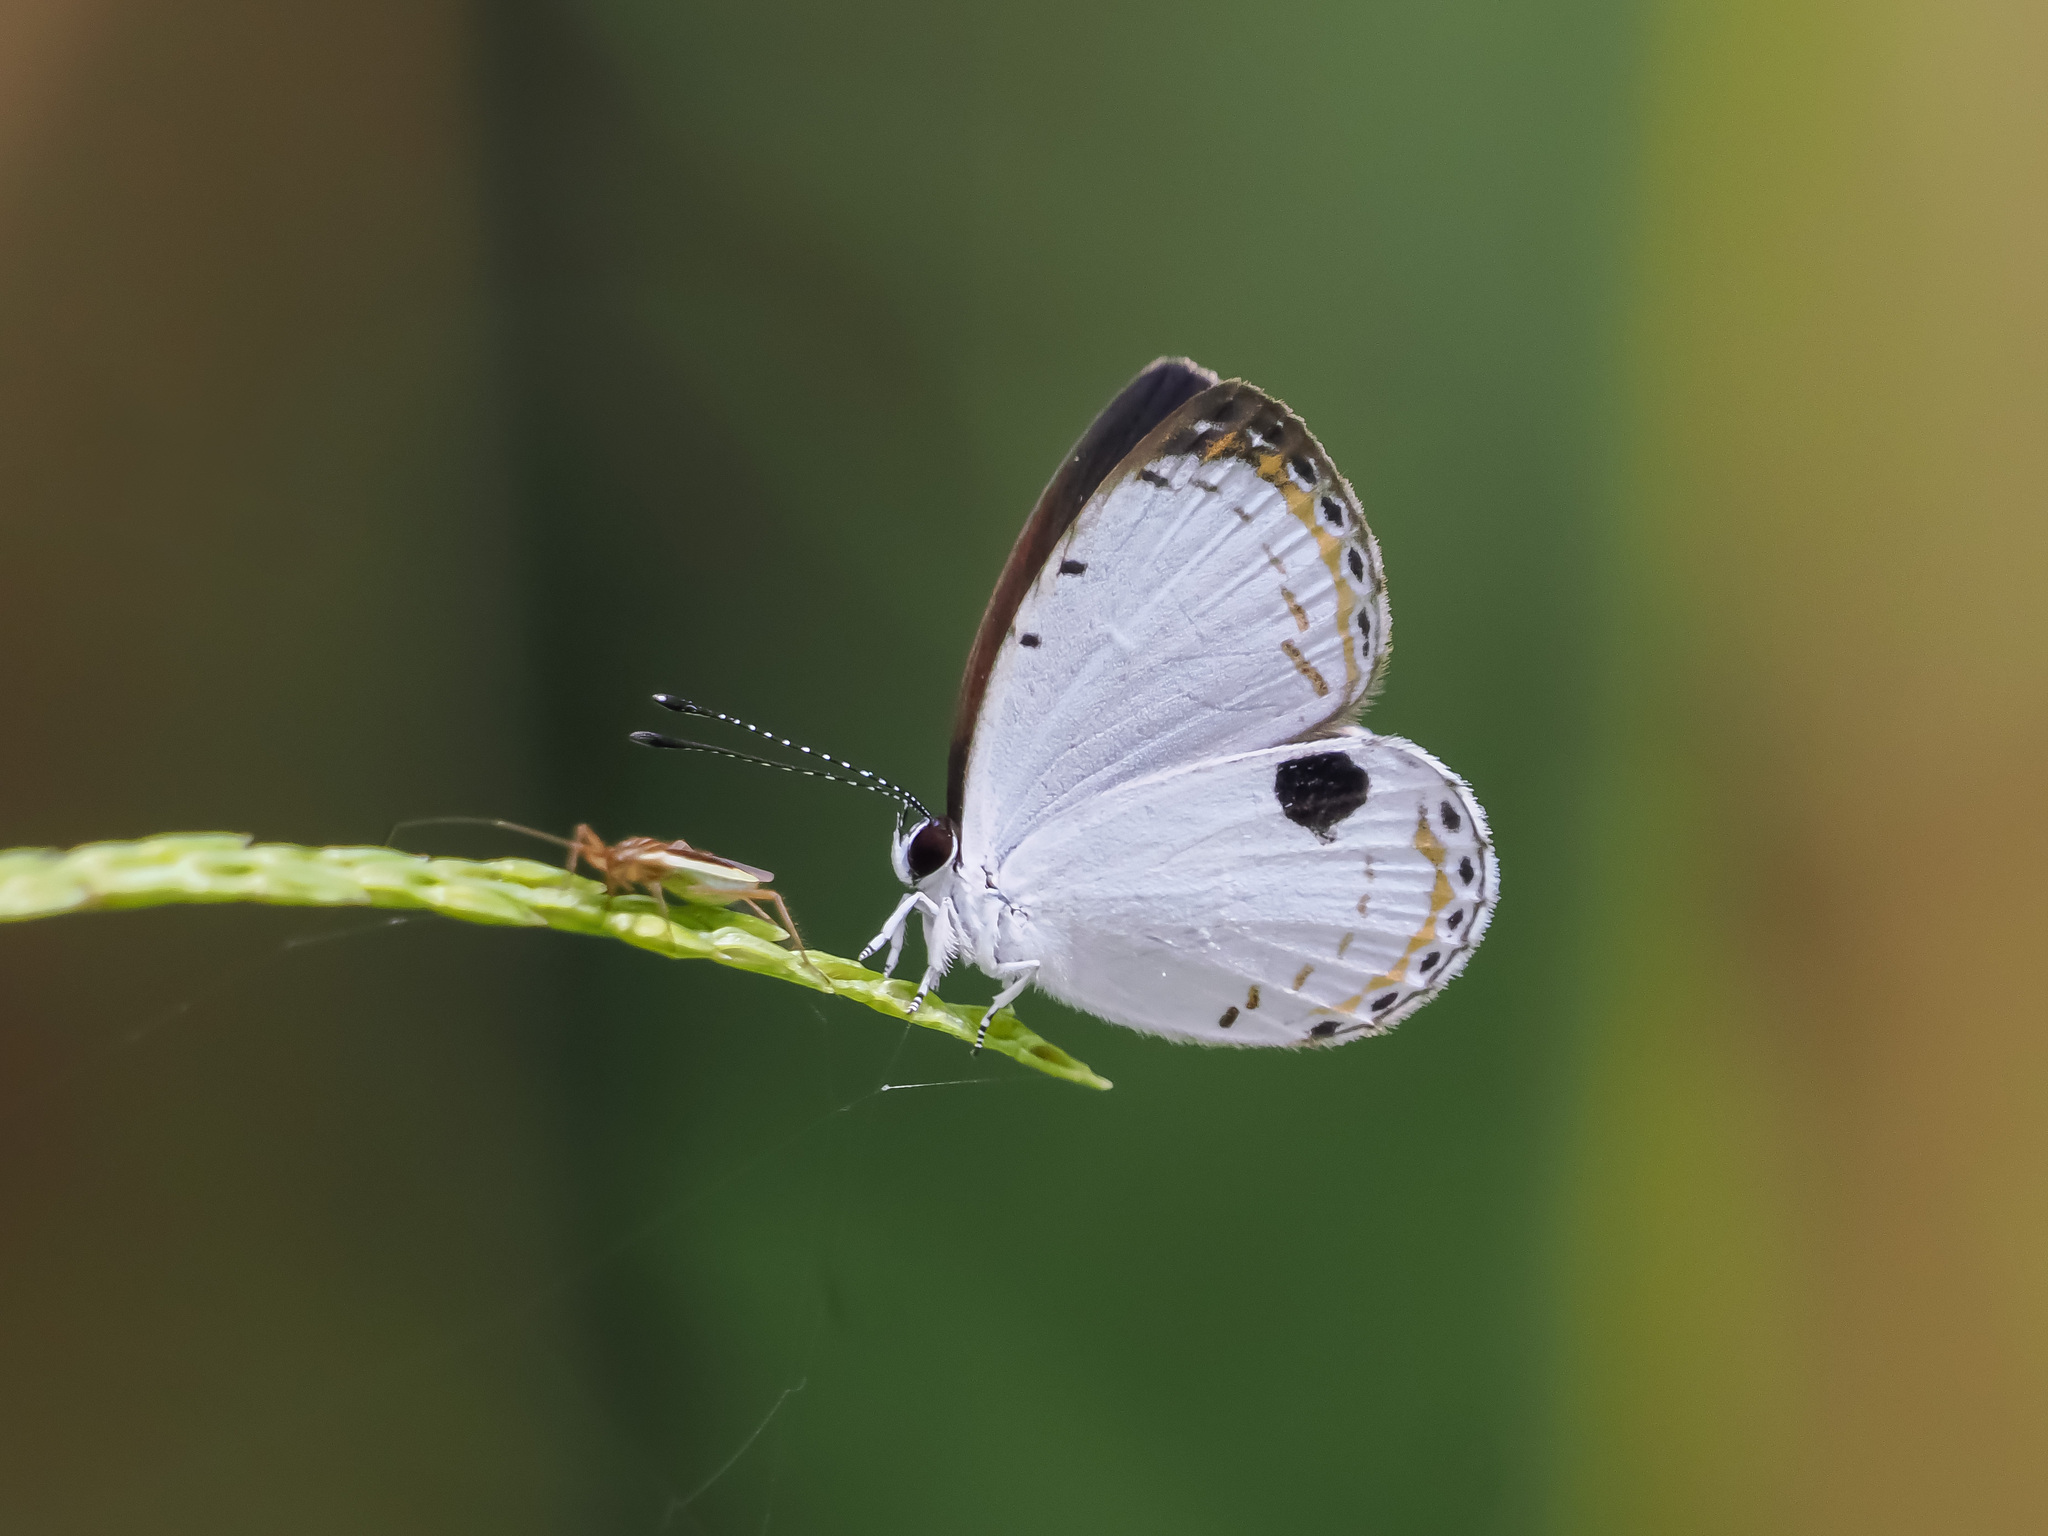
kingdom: Animalia
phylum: Arthropoda
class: Insecta
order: Lepidoptera
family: Lycaenidae
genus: Pithecops
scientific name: Pithecops corvus
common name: Forest quaker
